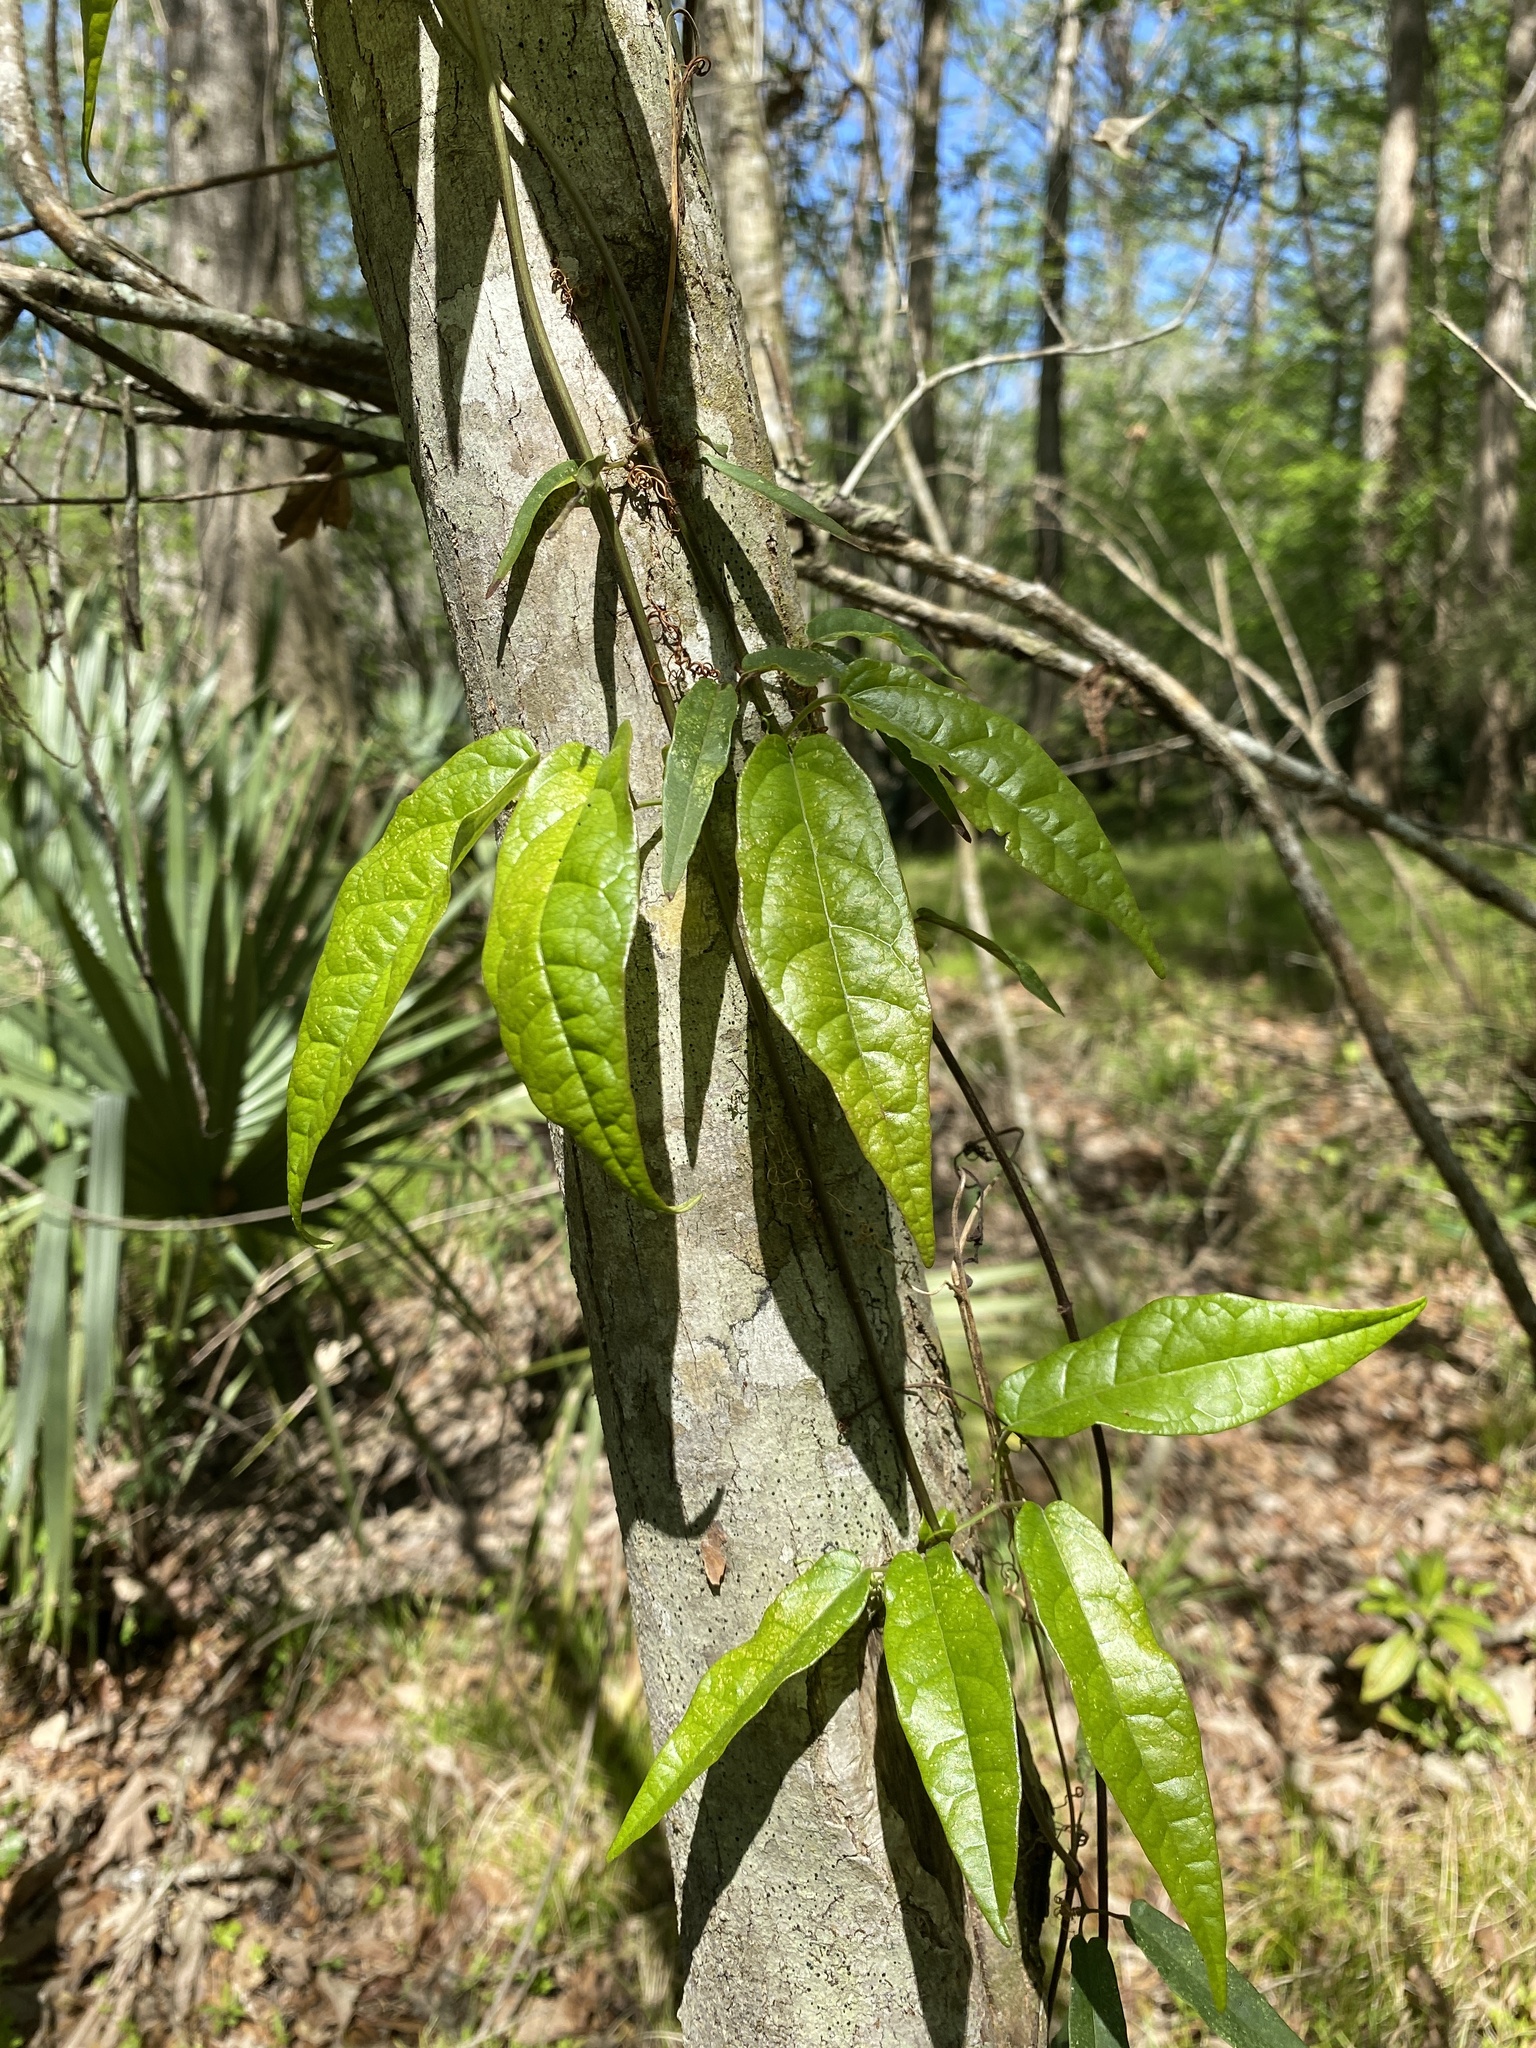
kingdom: Plantae
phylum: Tracheophyta
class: Magnoliopsida
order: Lamiales
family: Bignoniaceae
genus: Bignonia
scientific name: Bignonia capreolata
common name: Crossvine
